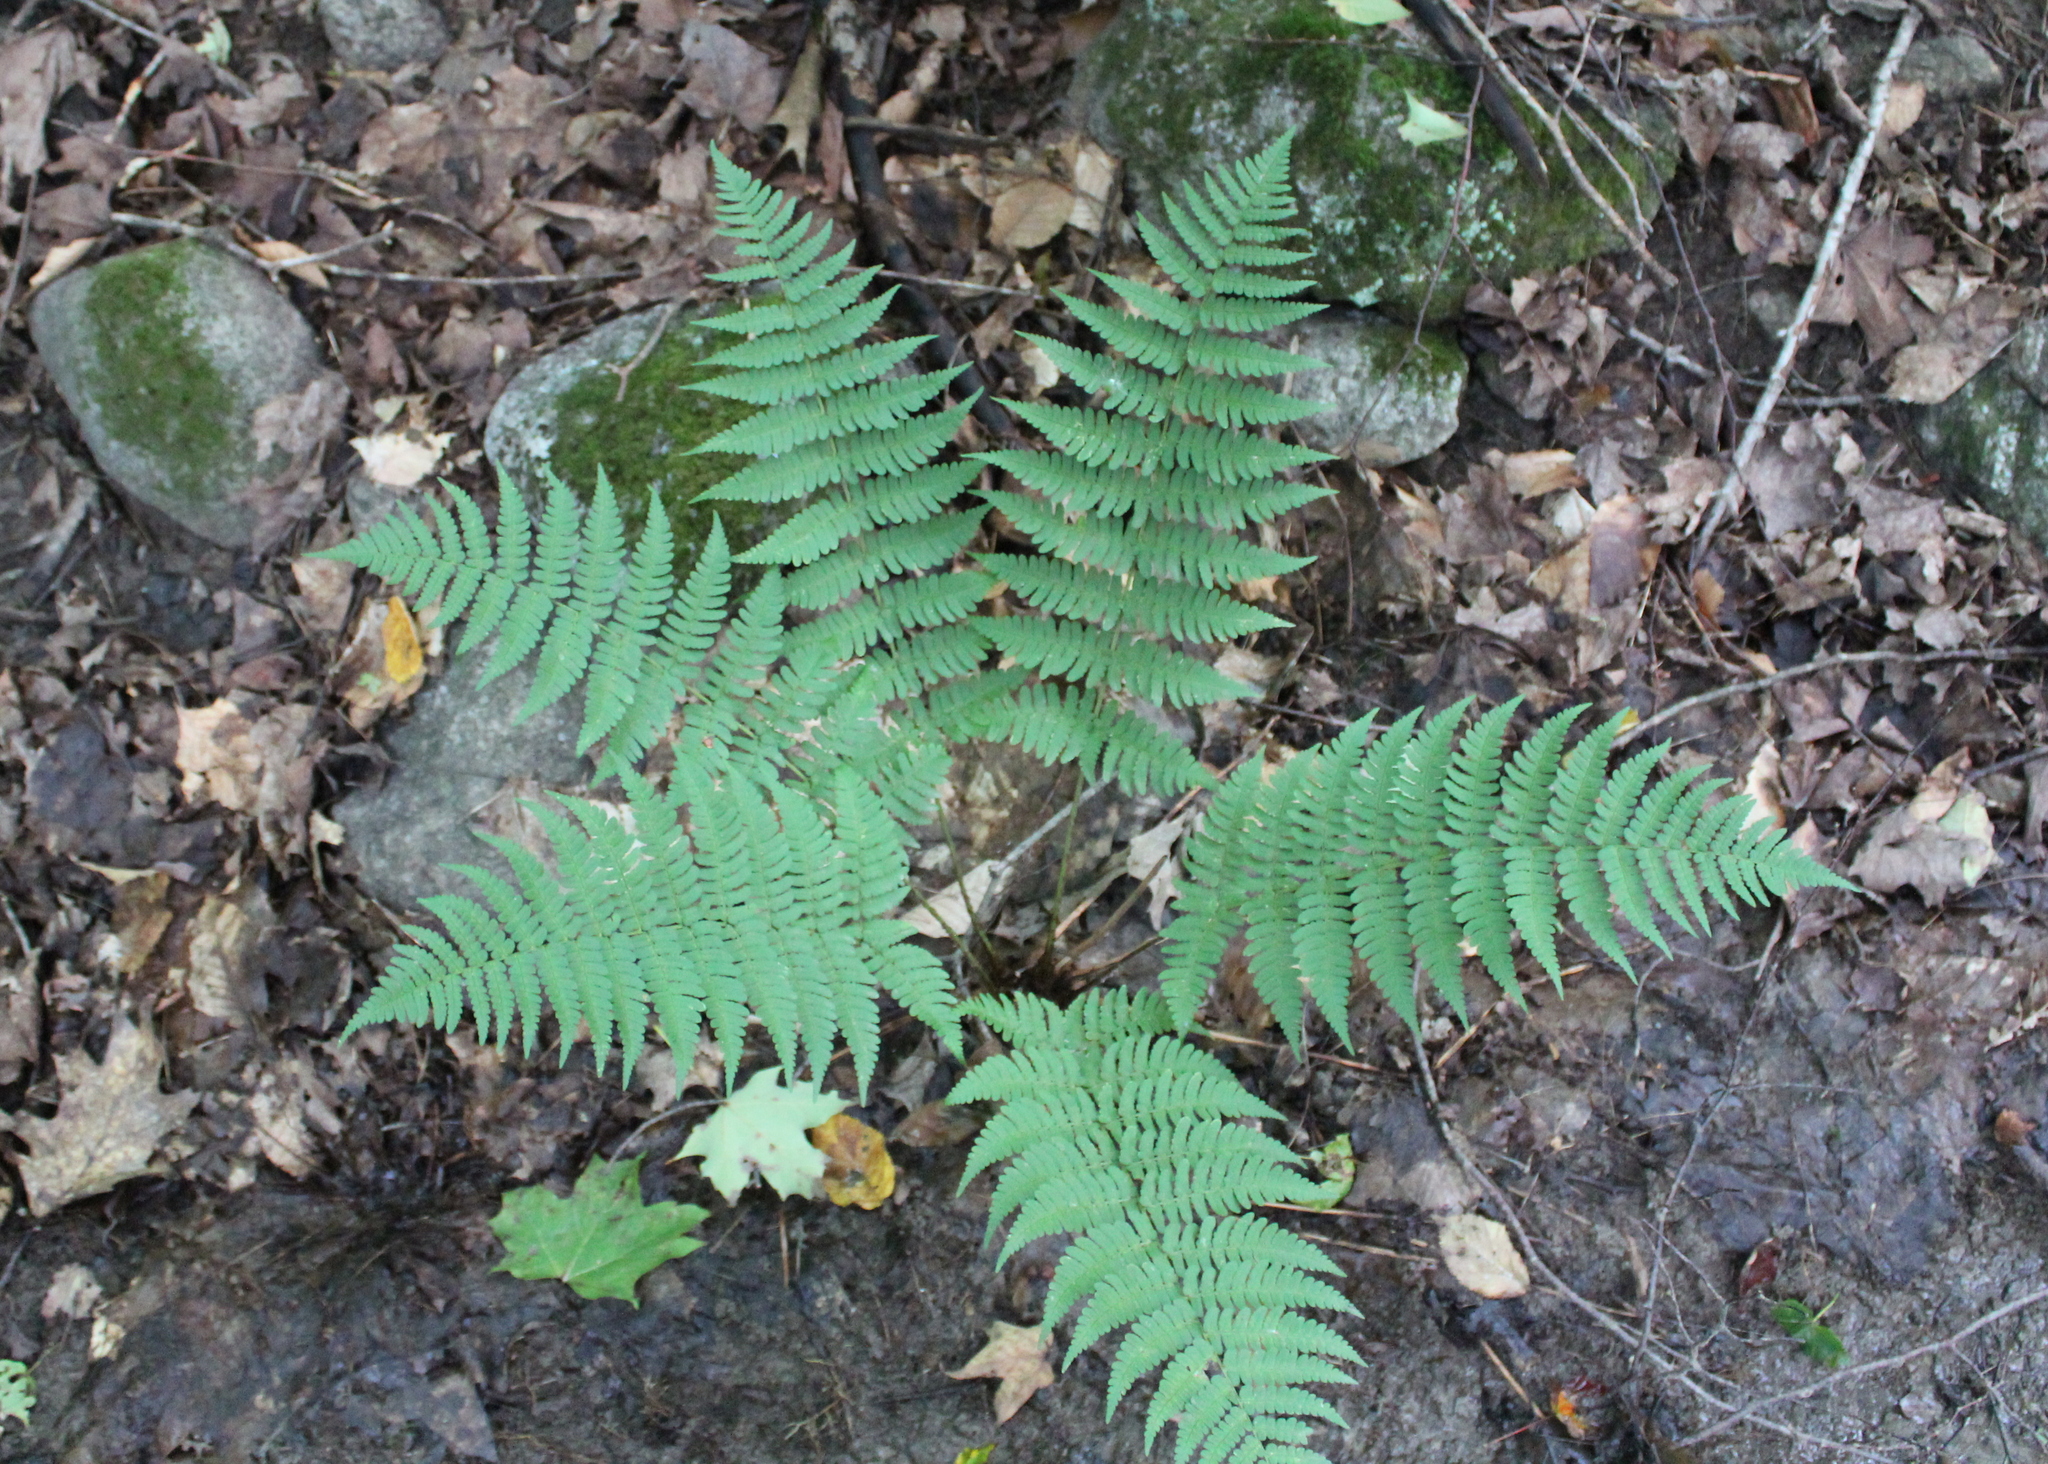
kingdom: Plantae
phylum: Tracheophyta
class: Polypodiopsida
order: Polypodiales
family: Dryopteridaceae
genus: Dryopteris
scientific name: Dryopteris marginalis
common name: Marginal wood fern
